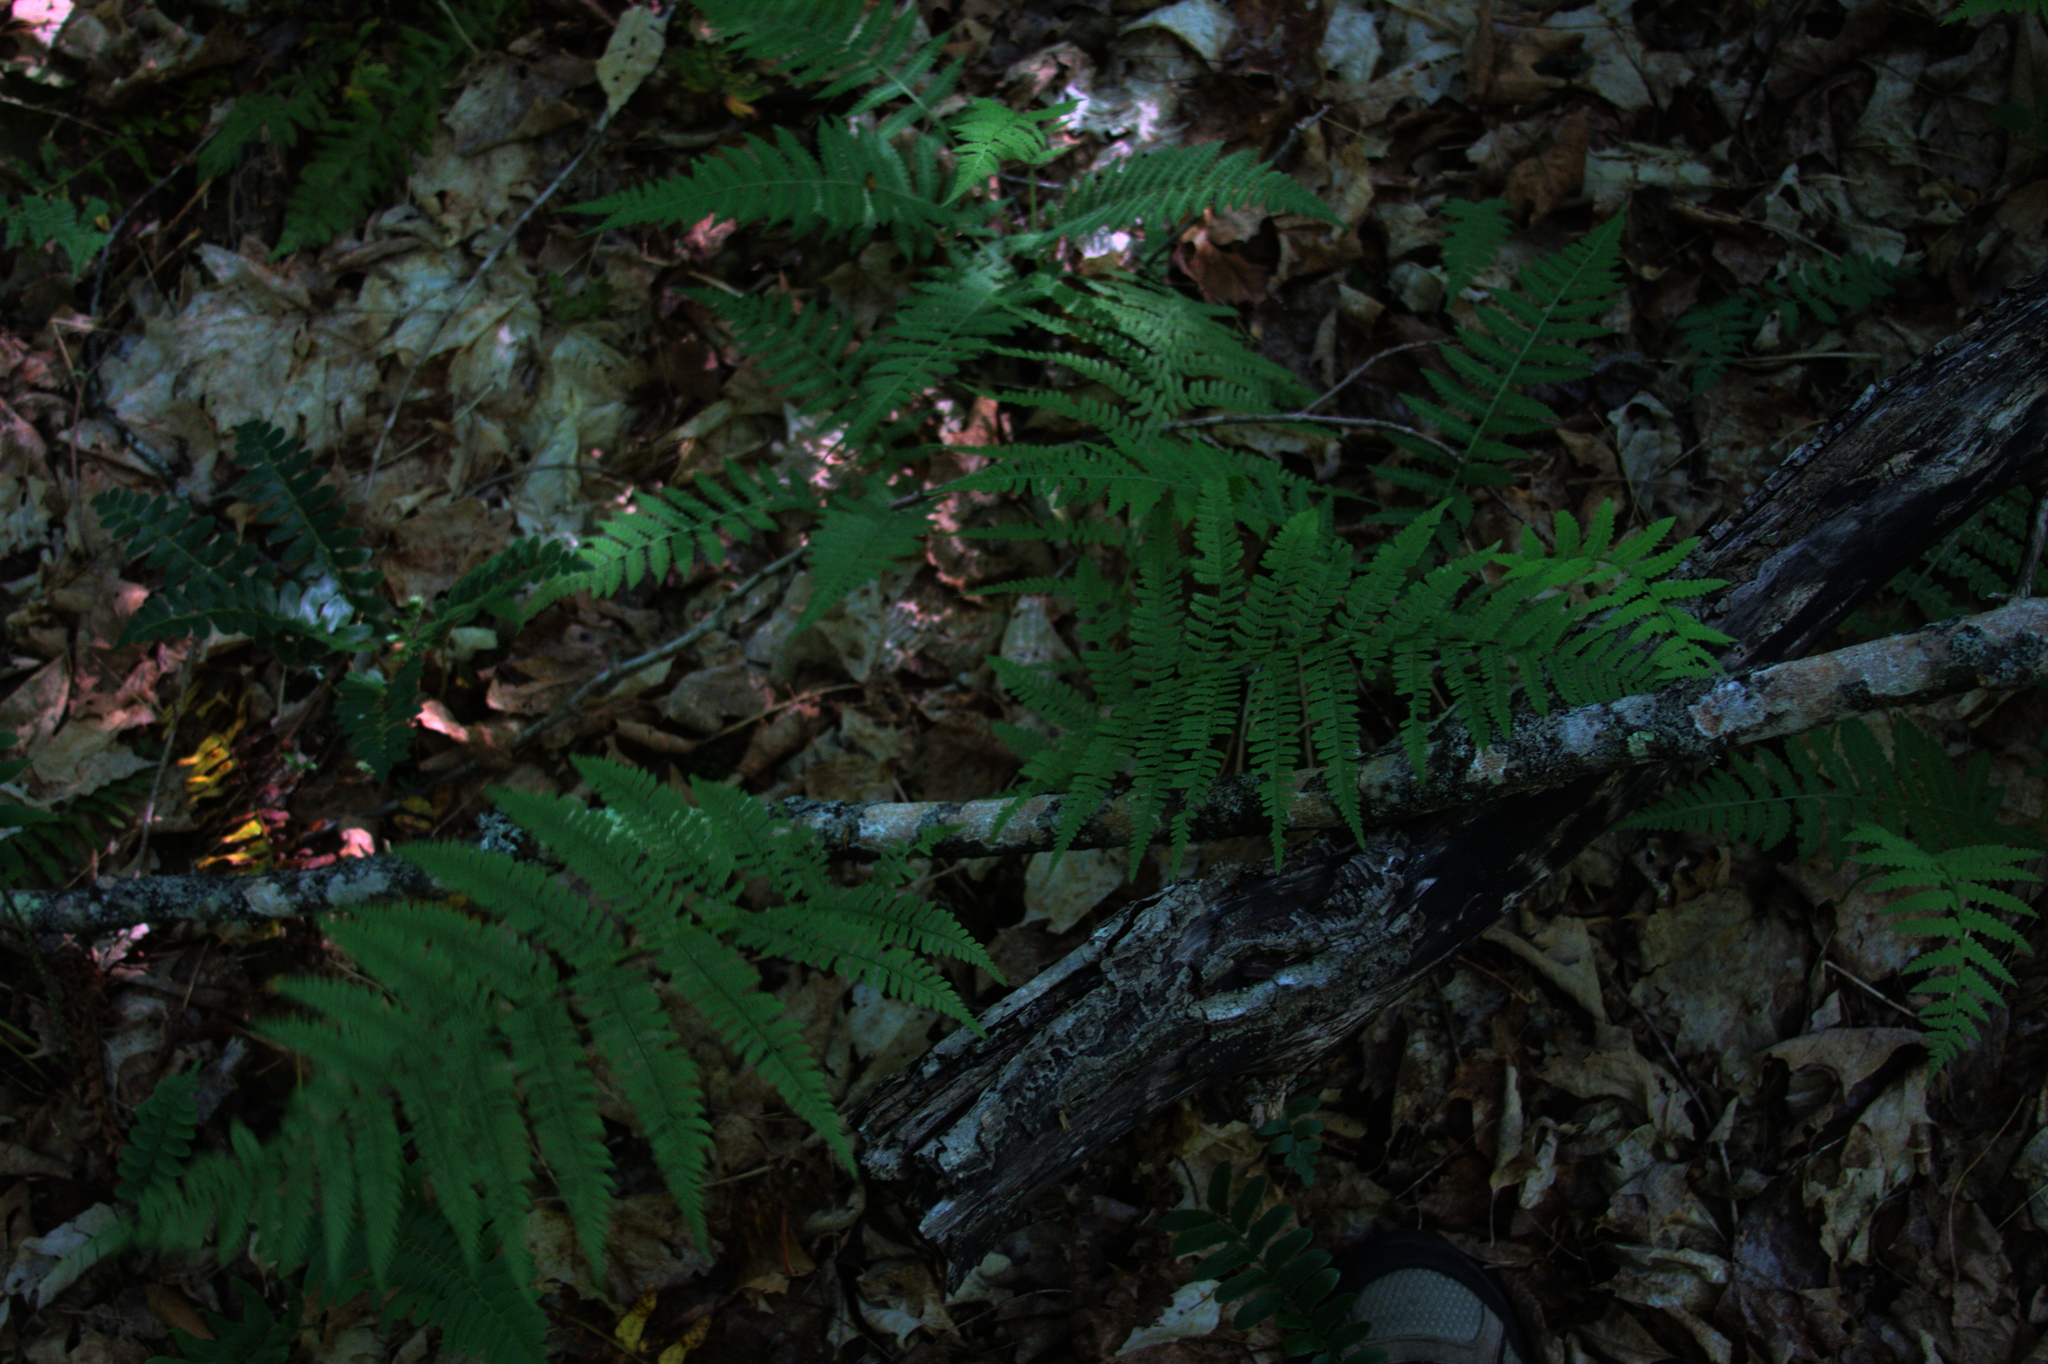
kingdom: Plantae
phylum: Tracheophyta
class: Polypodiopsida
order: Polypodiales
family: Athyriaceae
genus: Athyrium
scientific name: Athyrium angustum
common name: Northern lady fern
